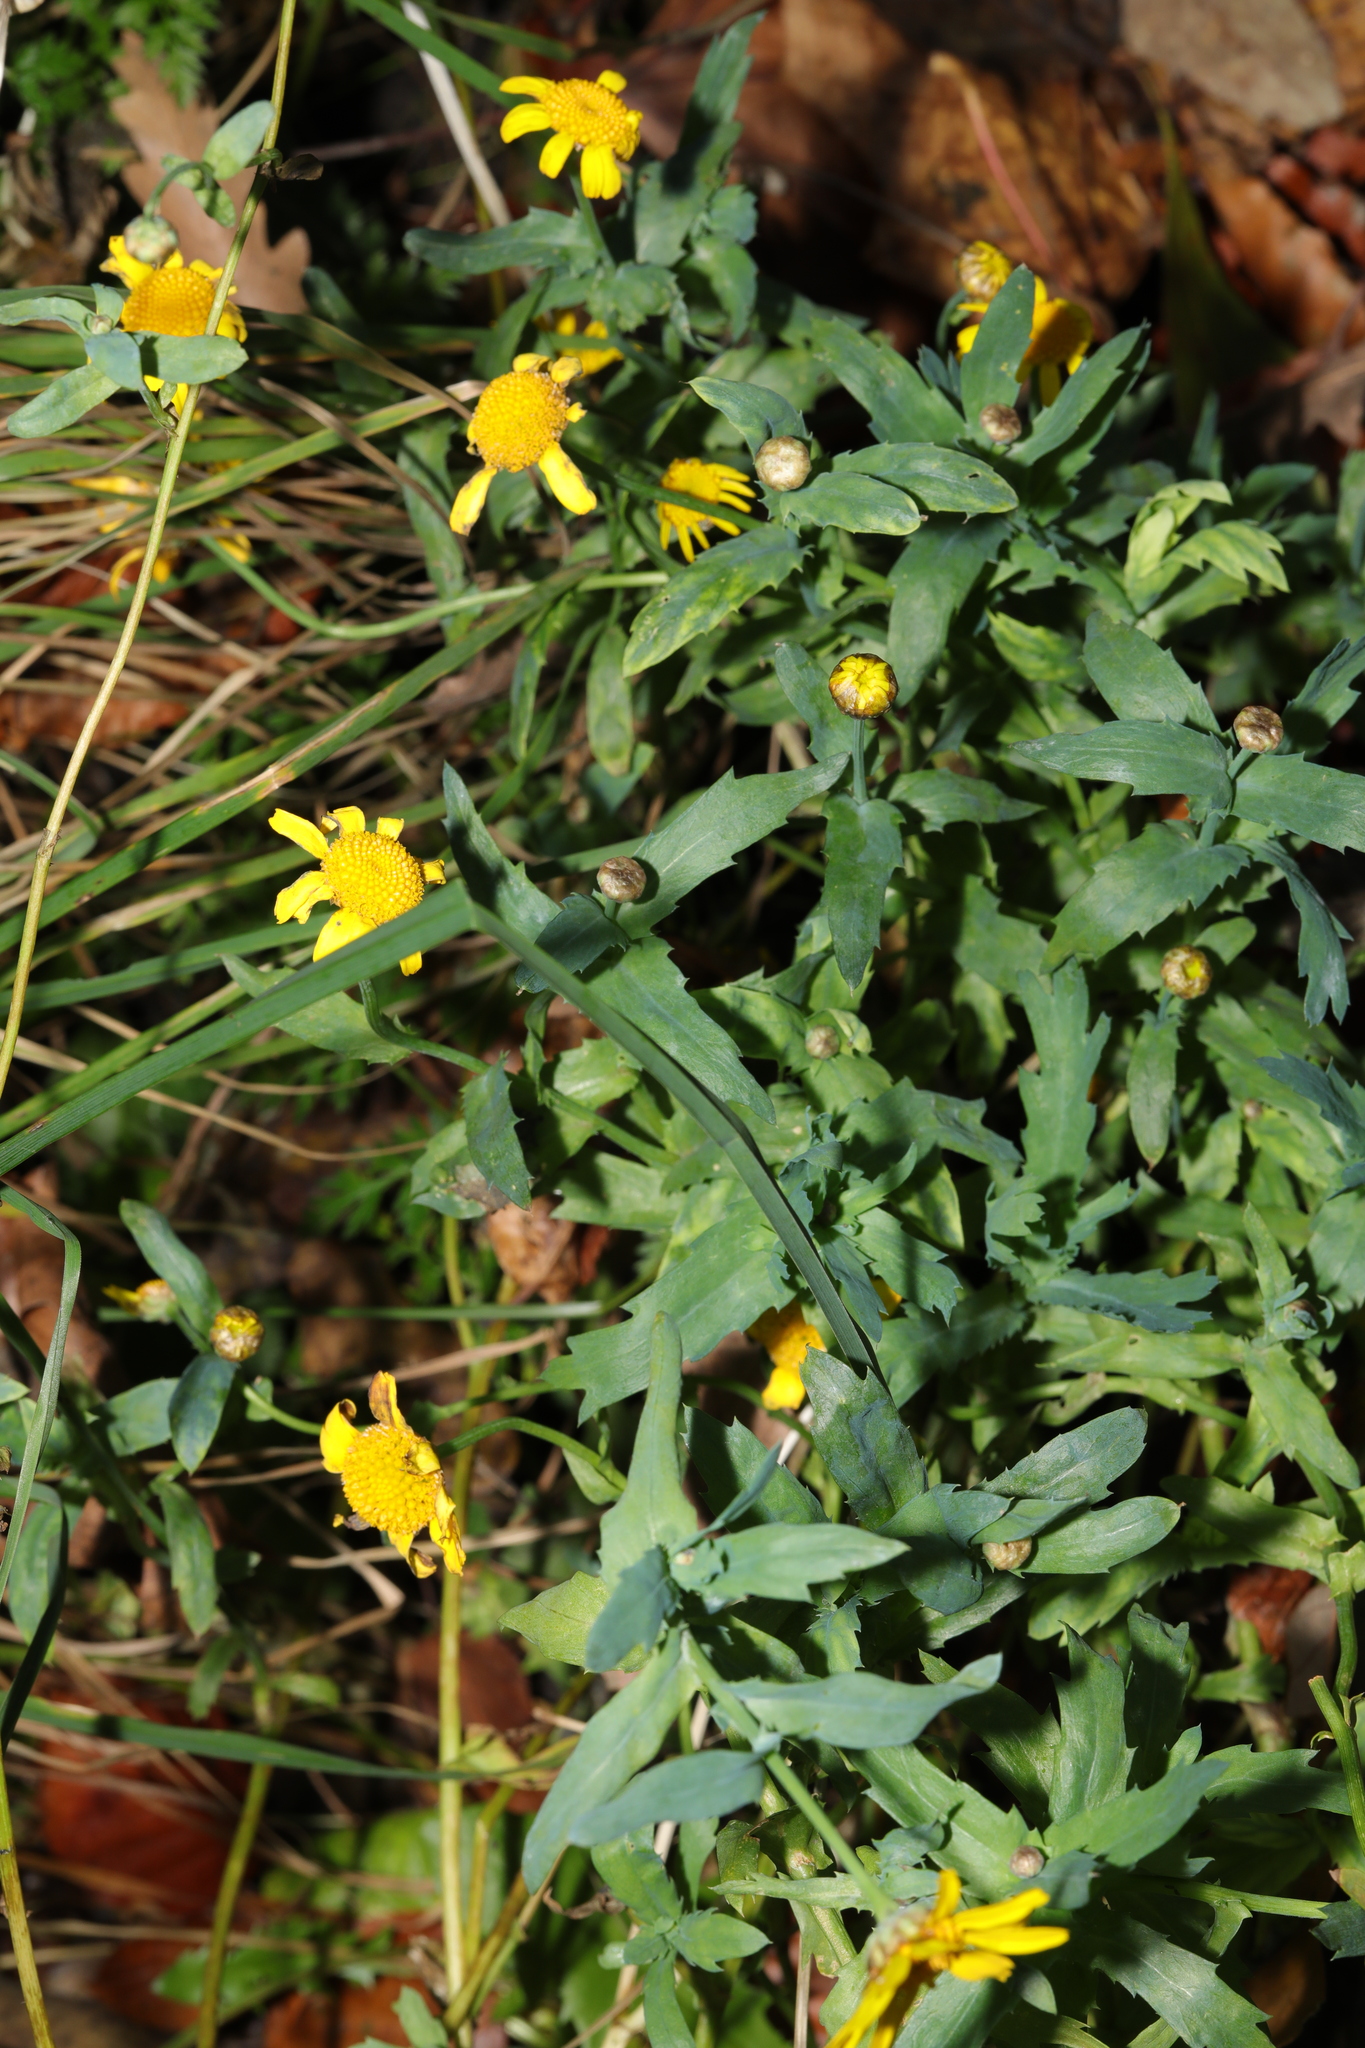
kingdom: Plantae
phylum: Tracheophyta
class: Magnoliopsida
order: Asterales
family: Asteraceae
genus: Glebionis
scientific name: Glebionis segetum
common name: Corndaisy
